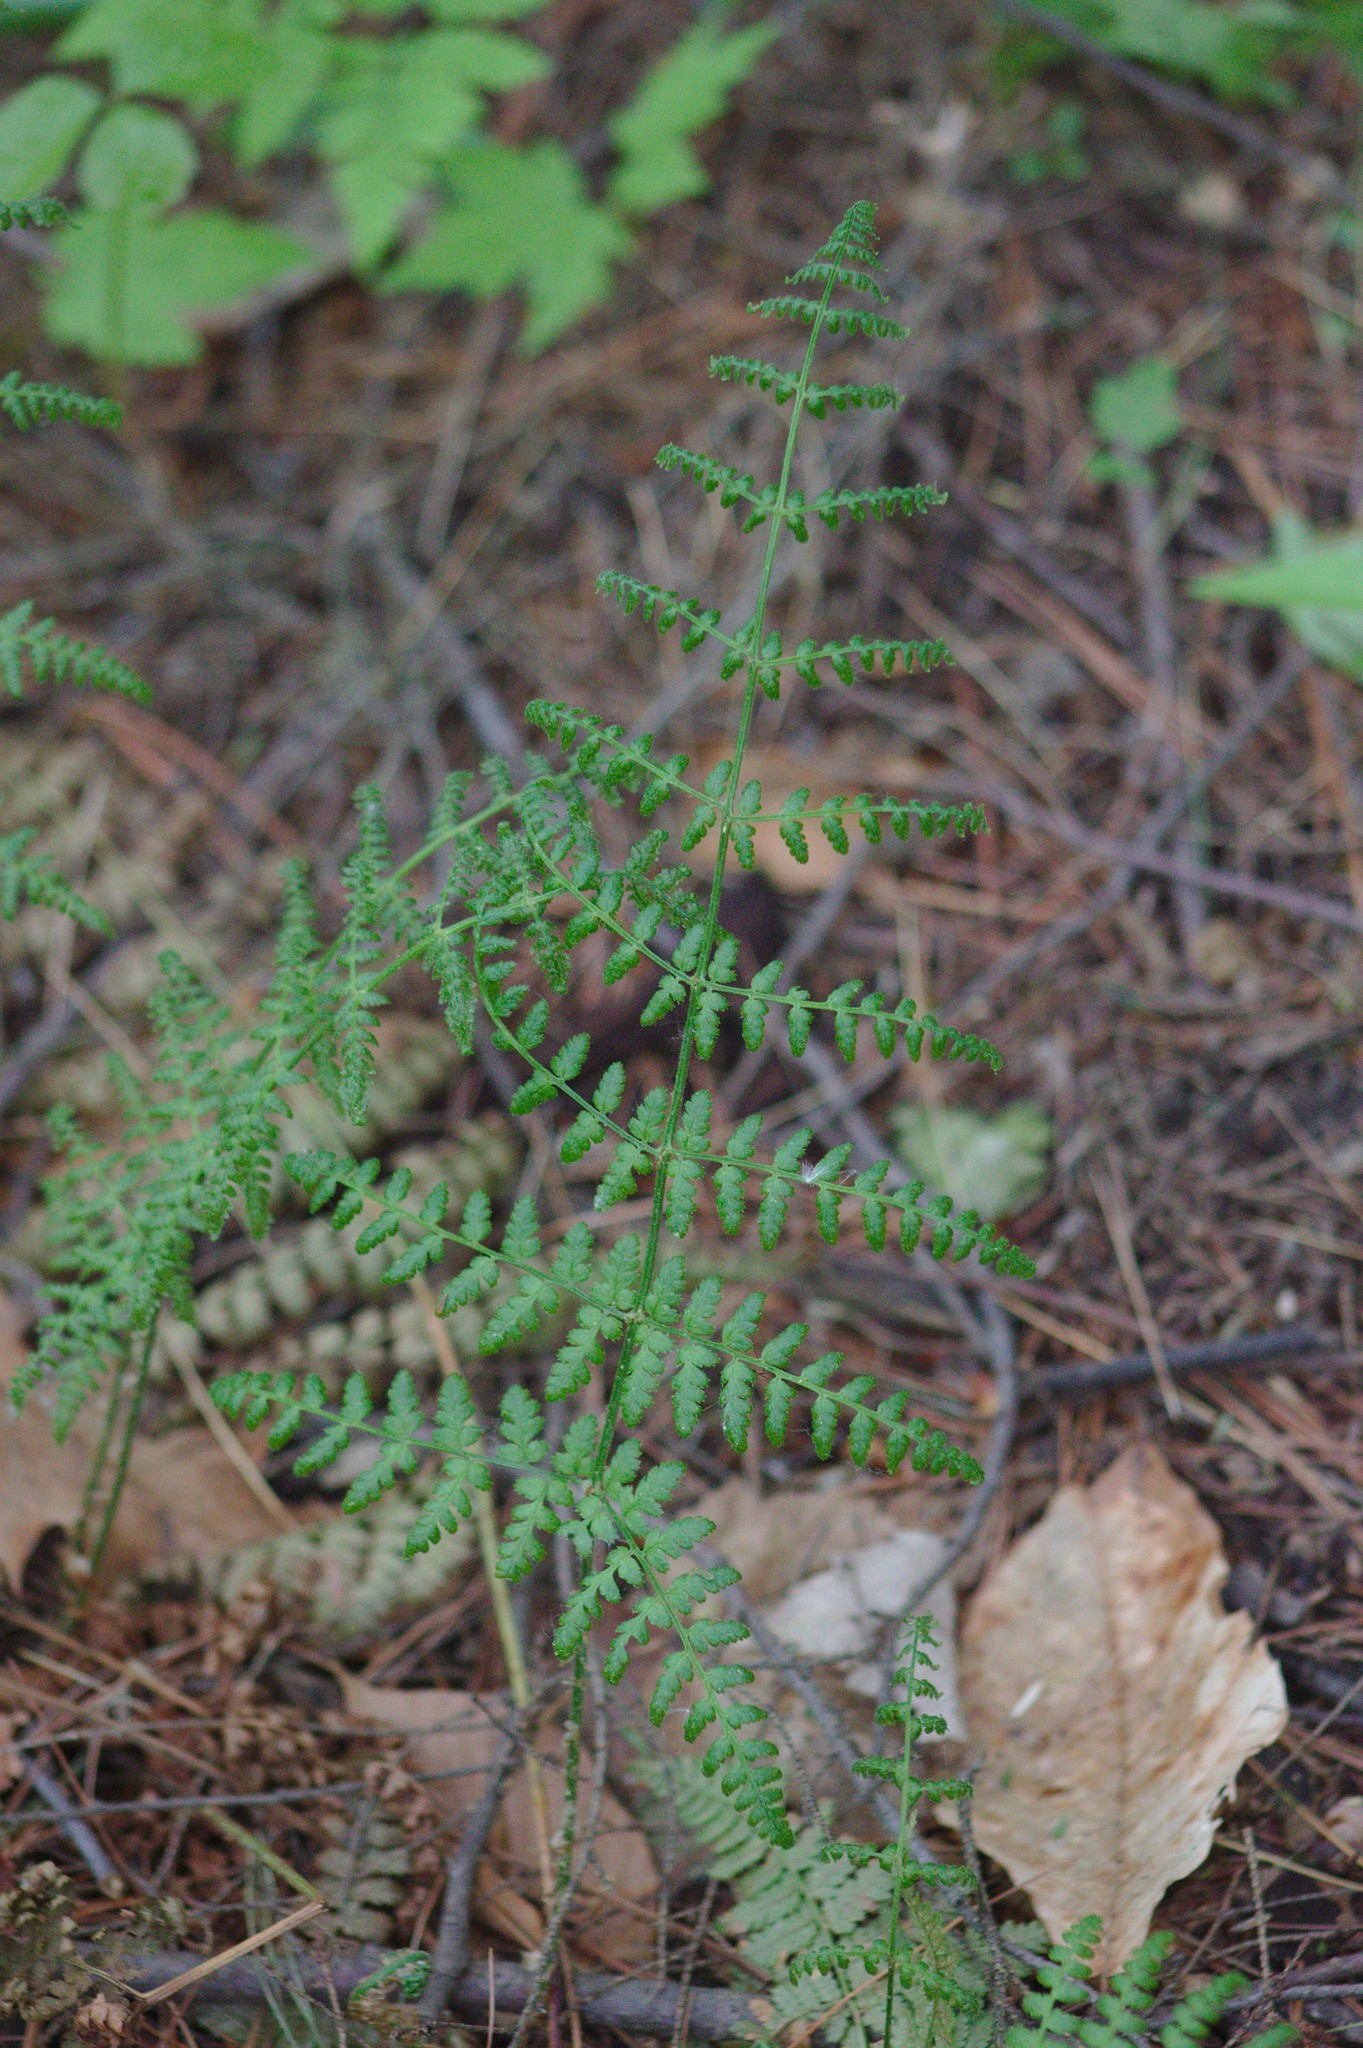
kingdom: Plantae
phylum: Tracheophyta
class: Polypodiopsida
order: Polypodiales
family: Dryopteridaceae
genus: Dryopteris
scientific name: Dryopteris intermedia
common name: Evergreen wood fern
